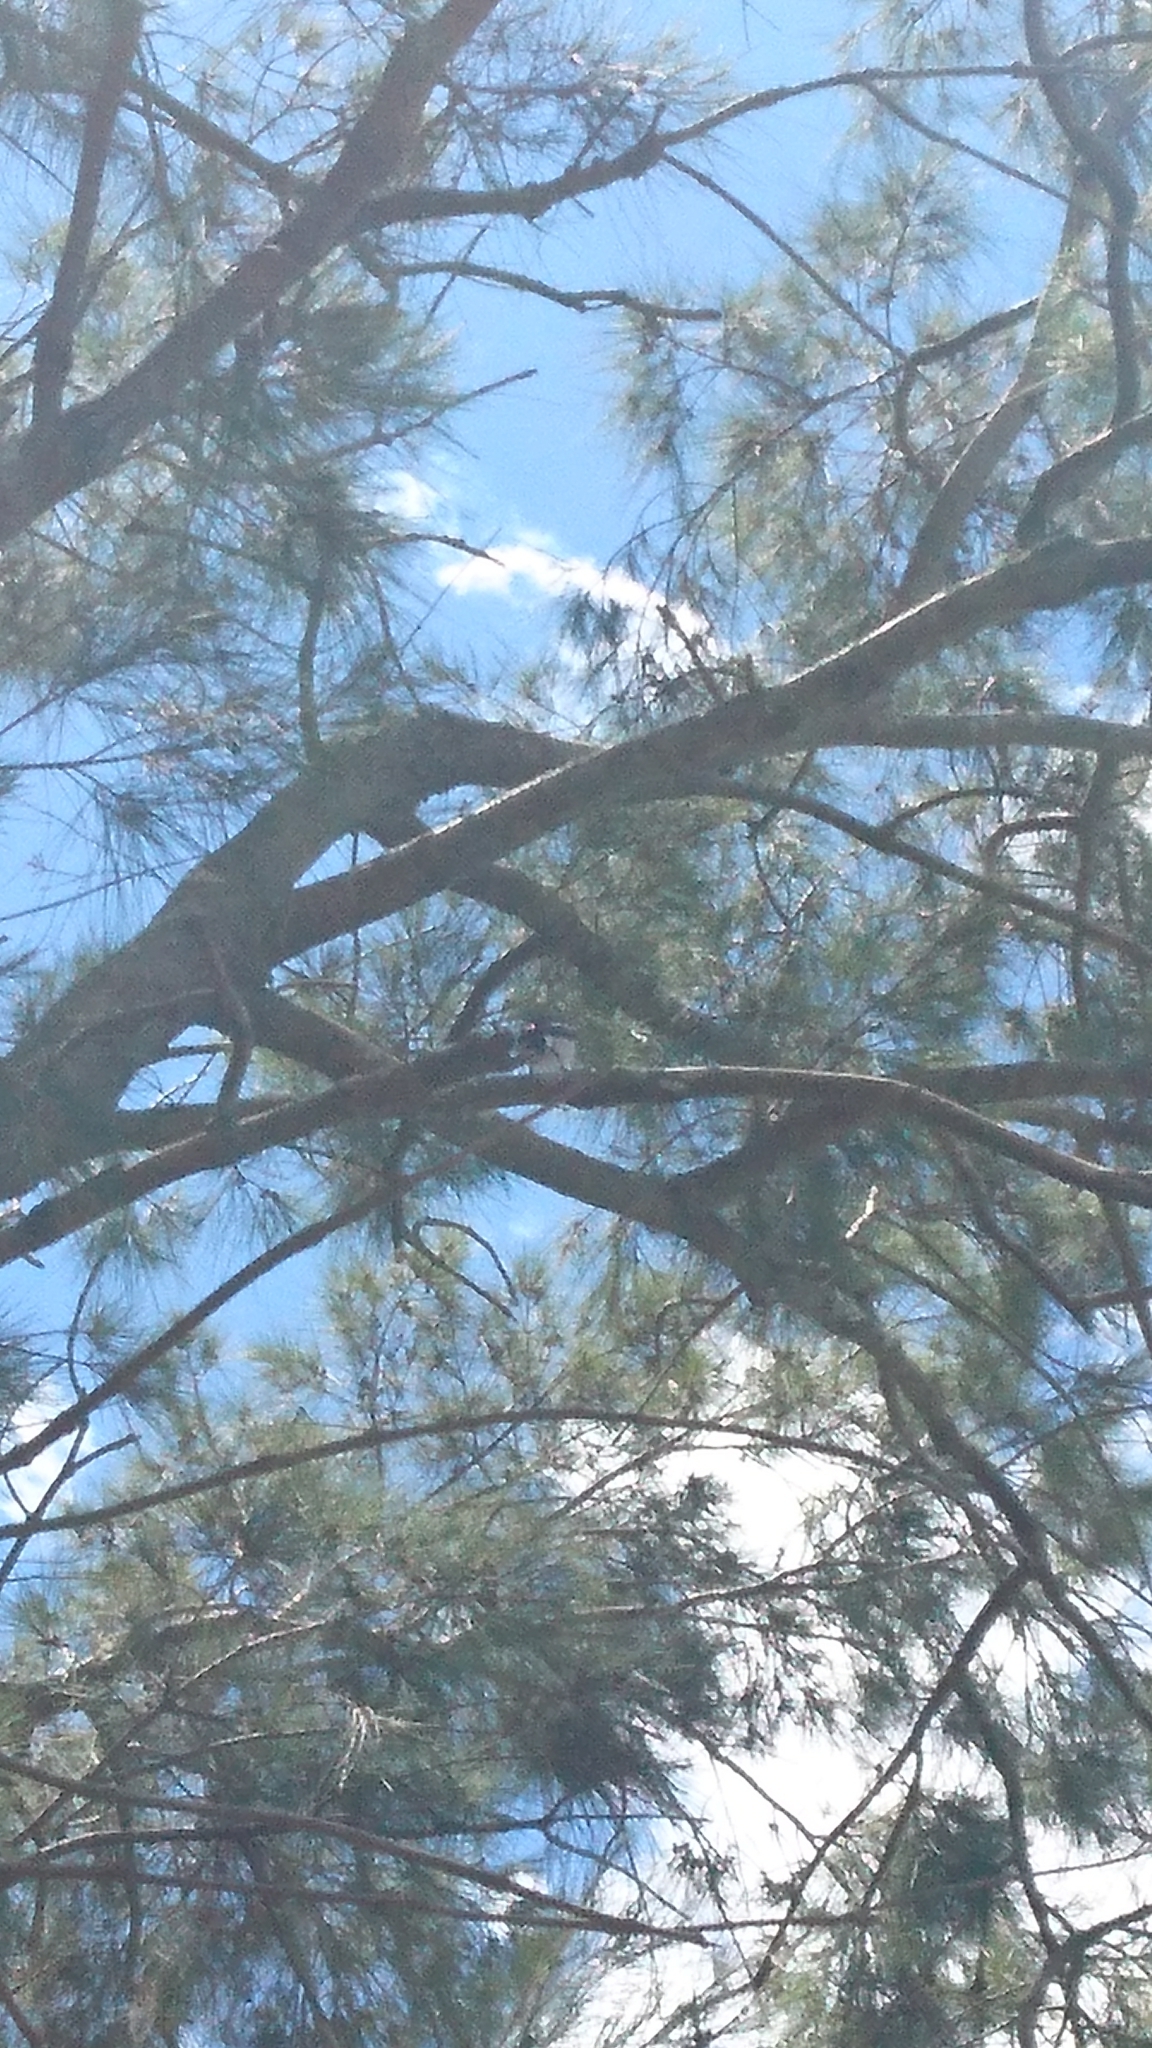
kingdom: Animalia
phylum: Chordata
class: Aves
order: Coraciiformes
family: Alcedinidae
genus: Dacelo
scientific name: Dacelo novaeguineae
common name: Laughing kookaburra
